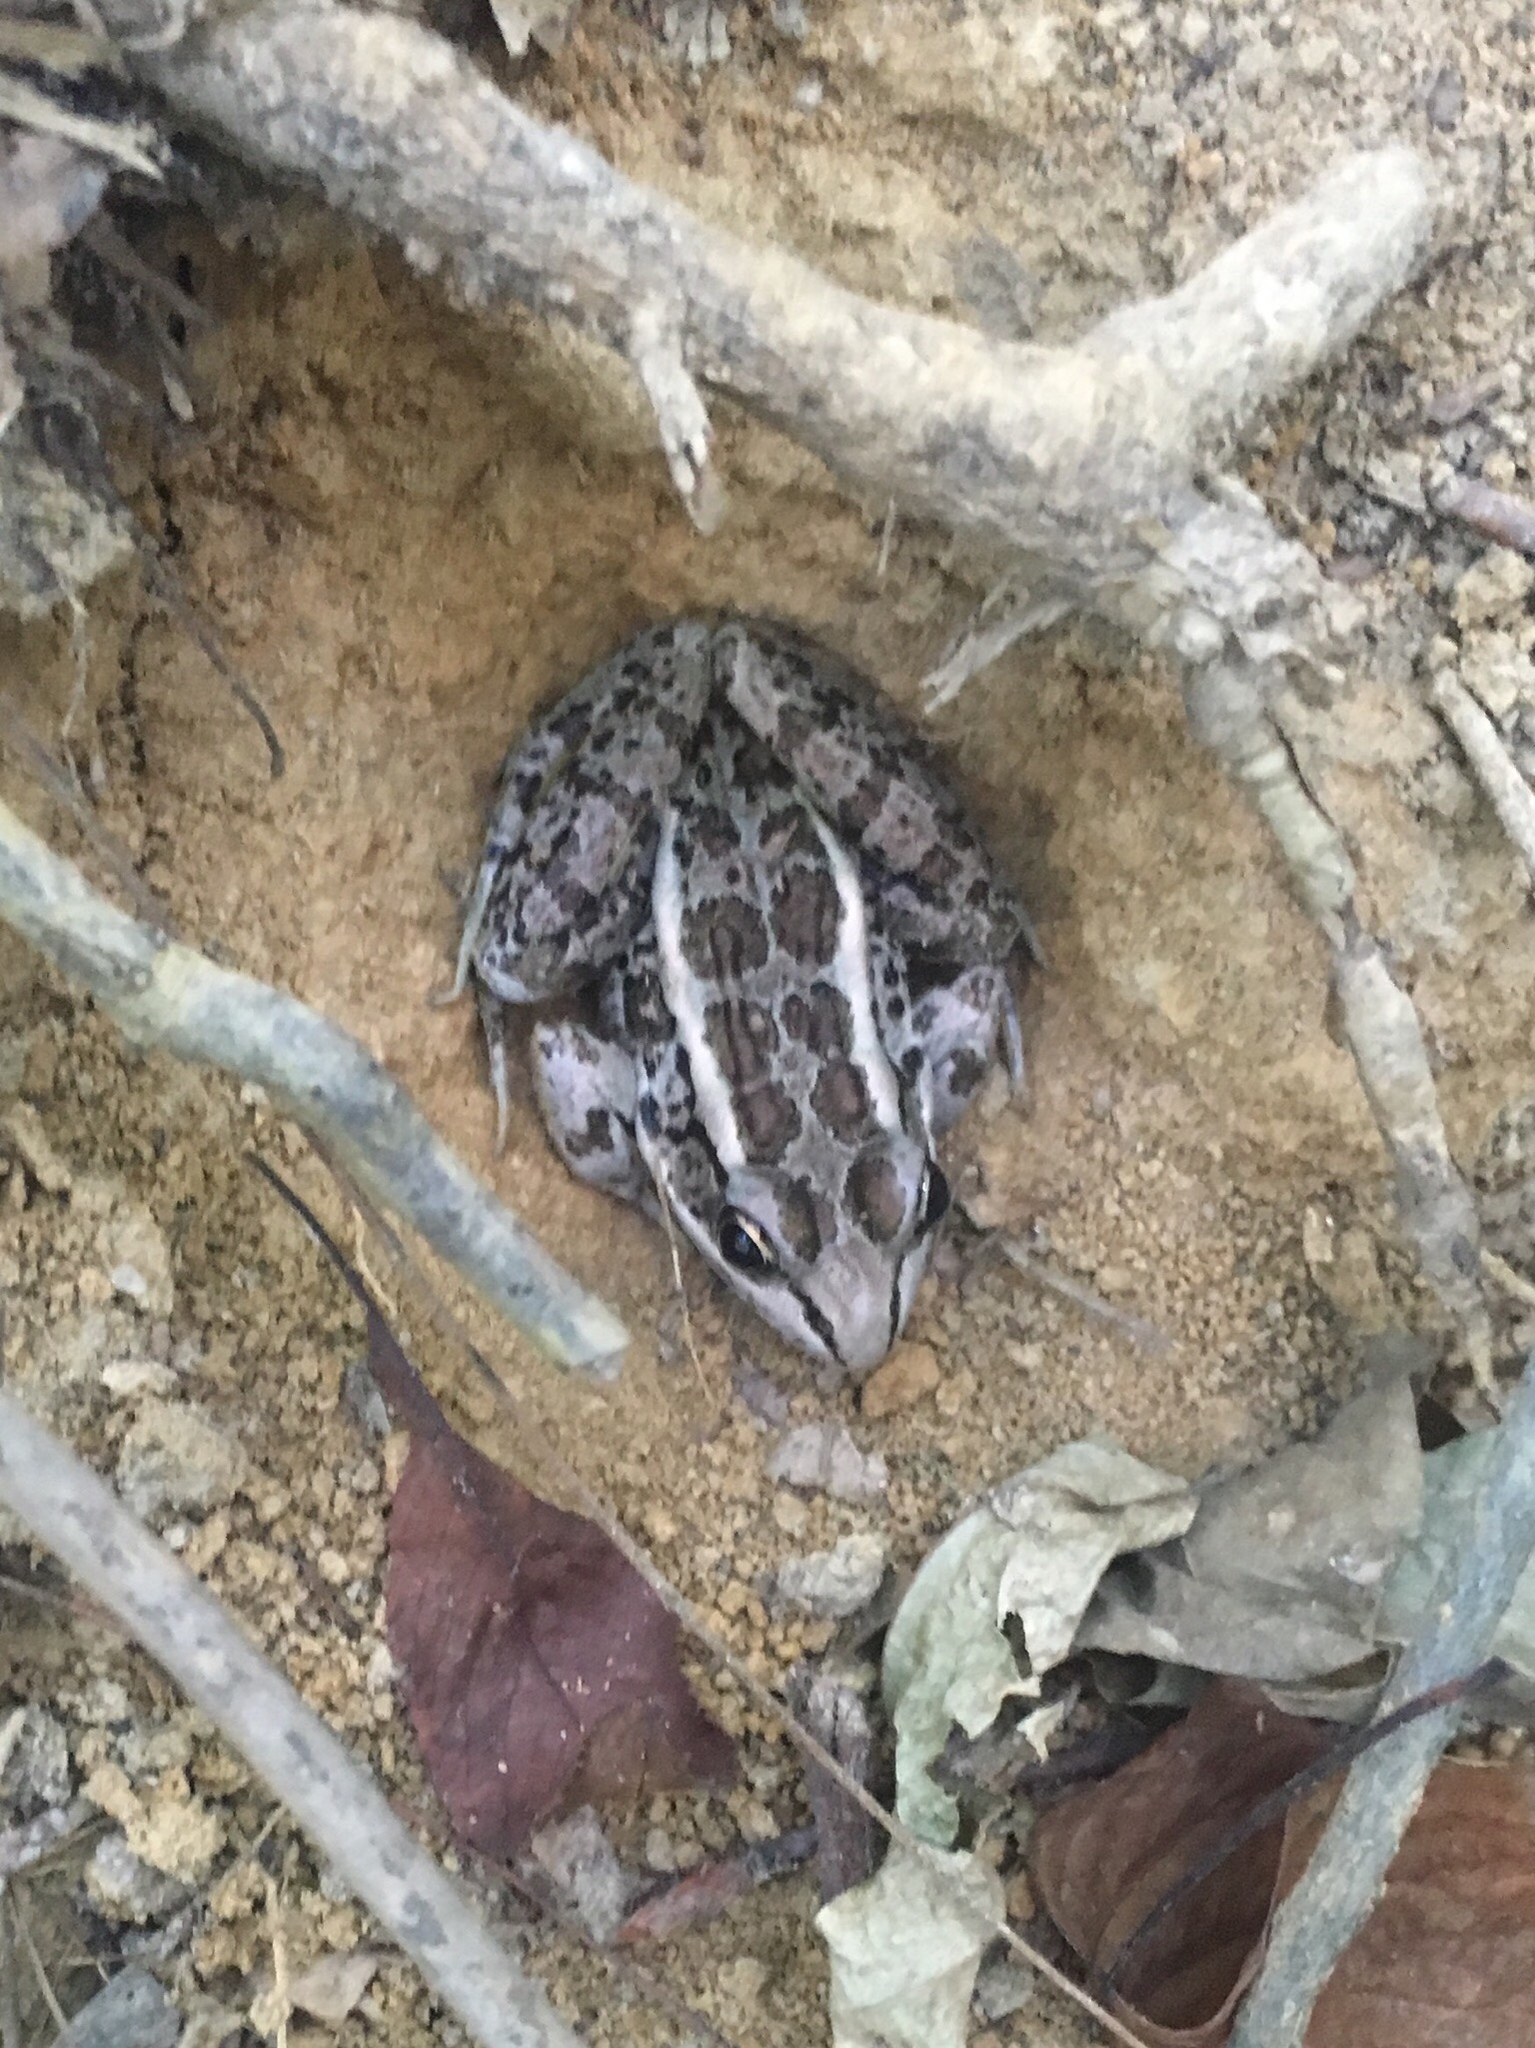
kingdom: Animalia
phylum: Chordata
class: Amphibia
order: Anura
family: Ranidae
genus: Lithobates
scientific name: Lithobates palustris
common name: Pickerel frog
